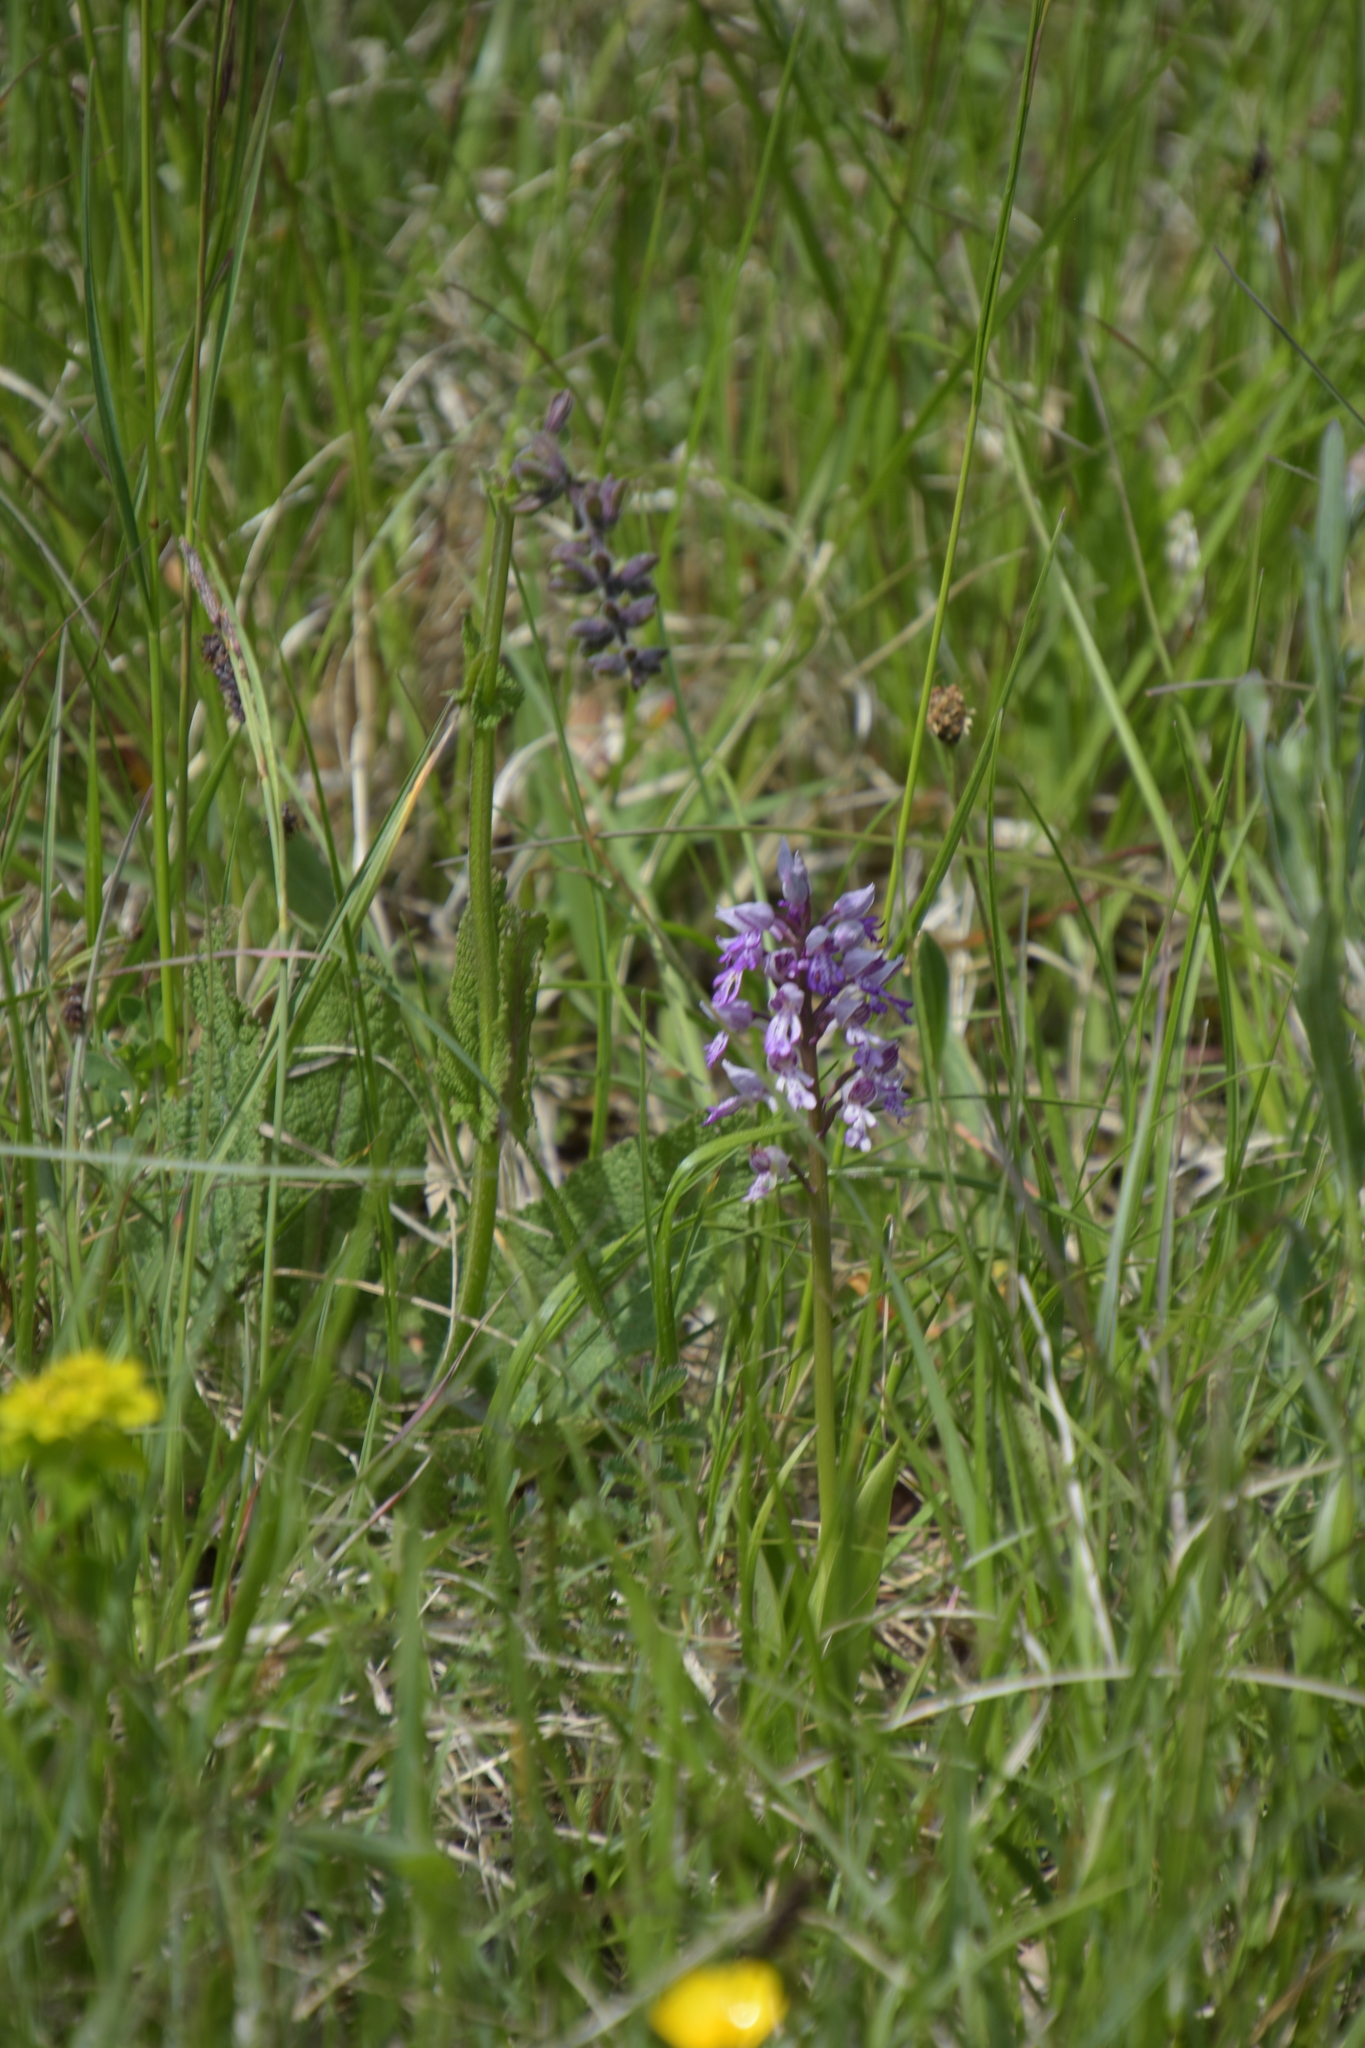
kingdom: Plantae
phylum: Tracheophyta
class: Liliopsida
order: Asparagales
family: Orchidaceae
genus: Orchis
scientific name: Orchis militaris
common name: Military orchid
